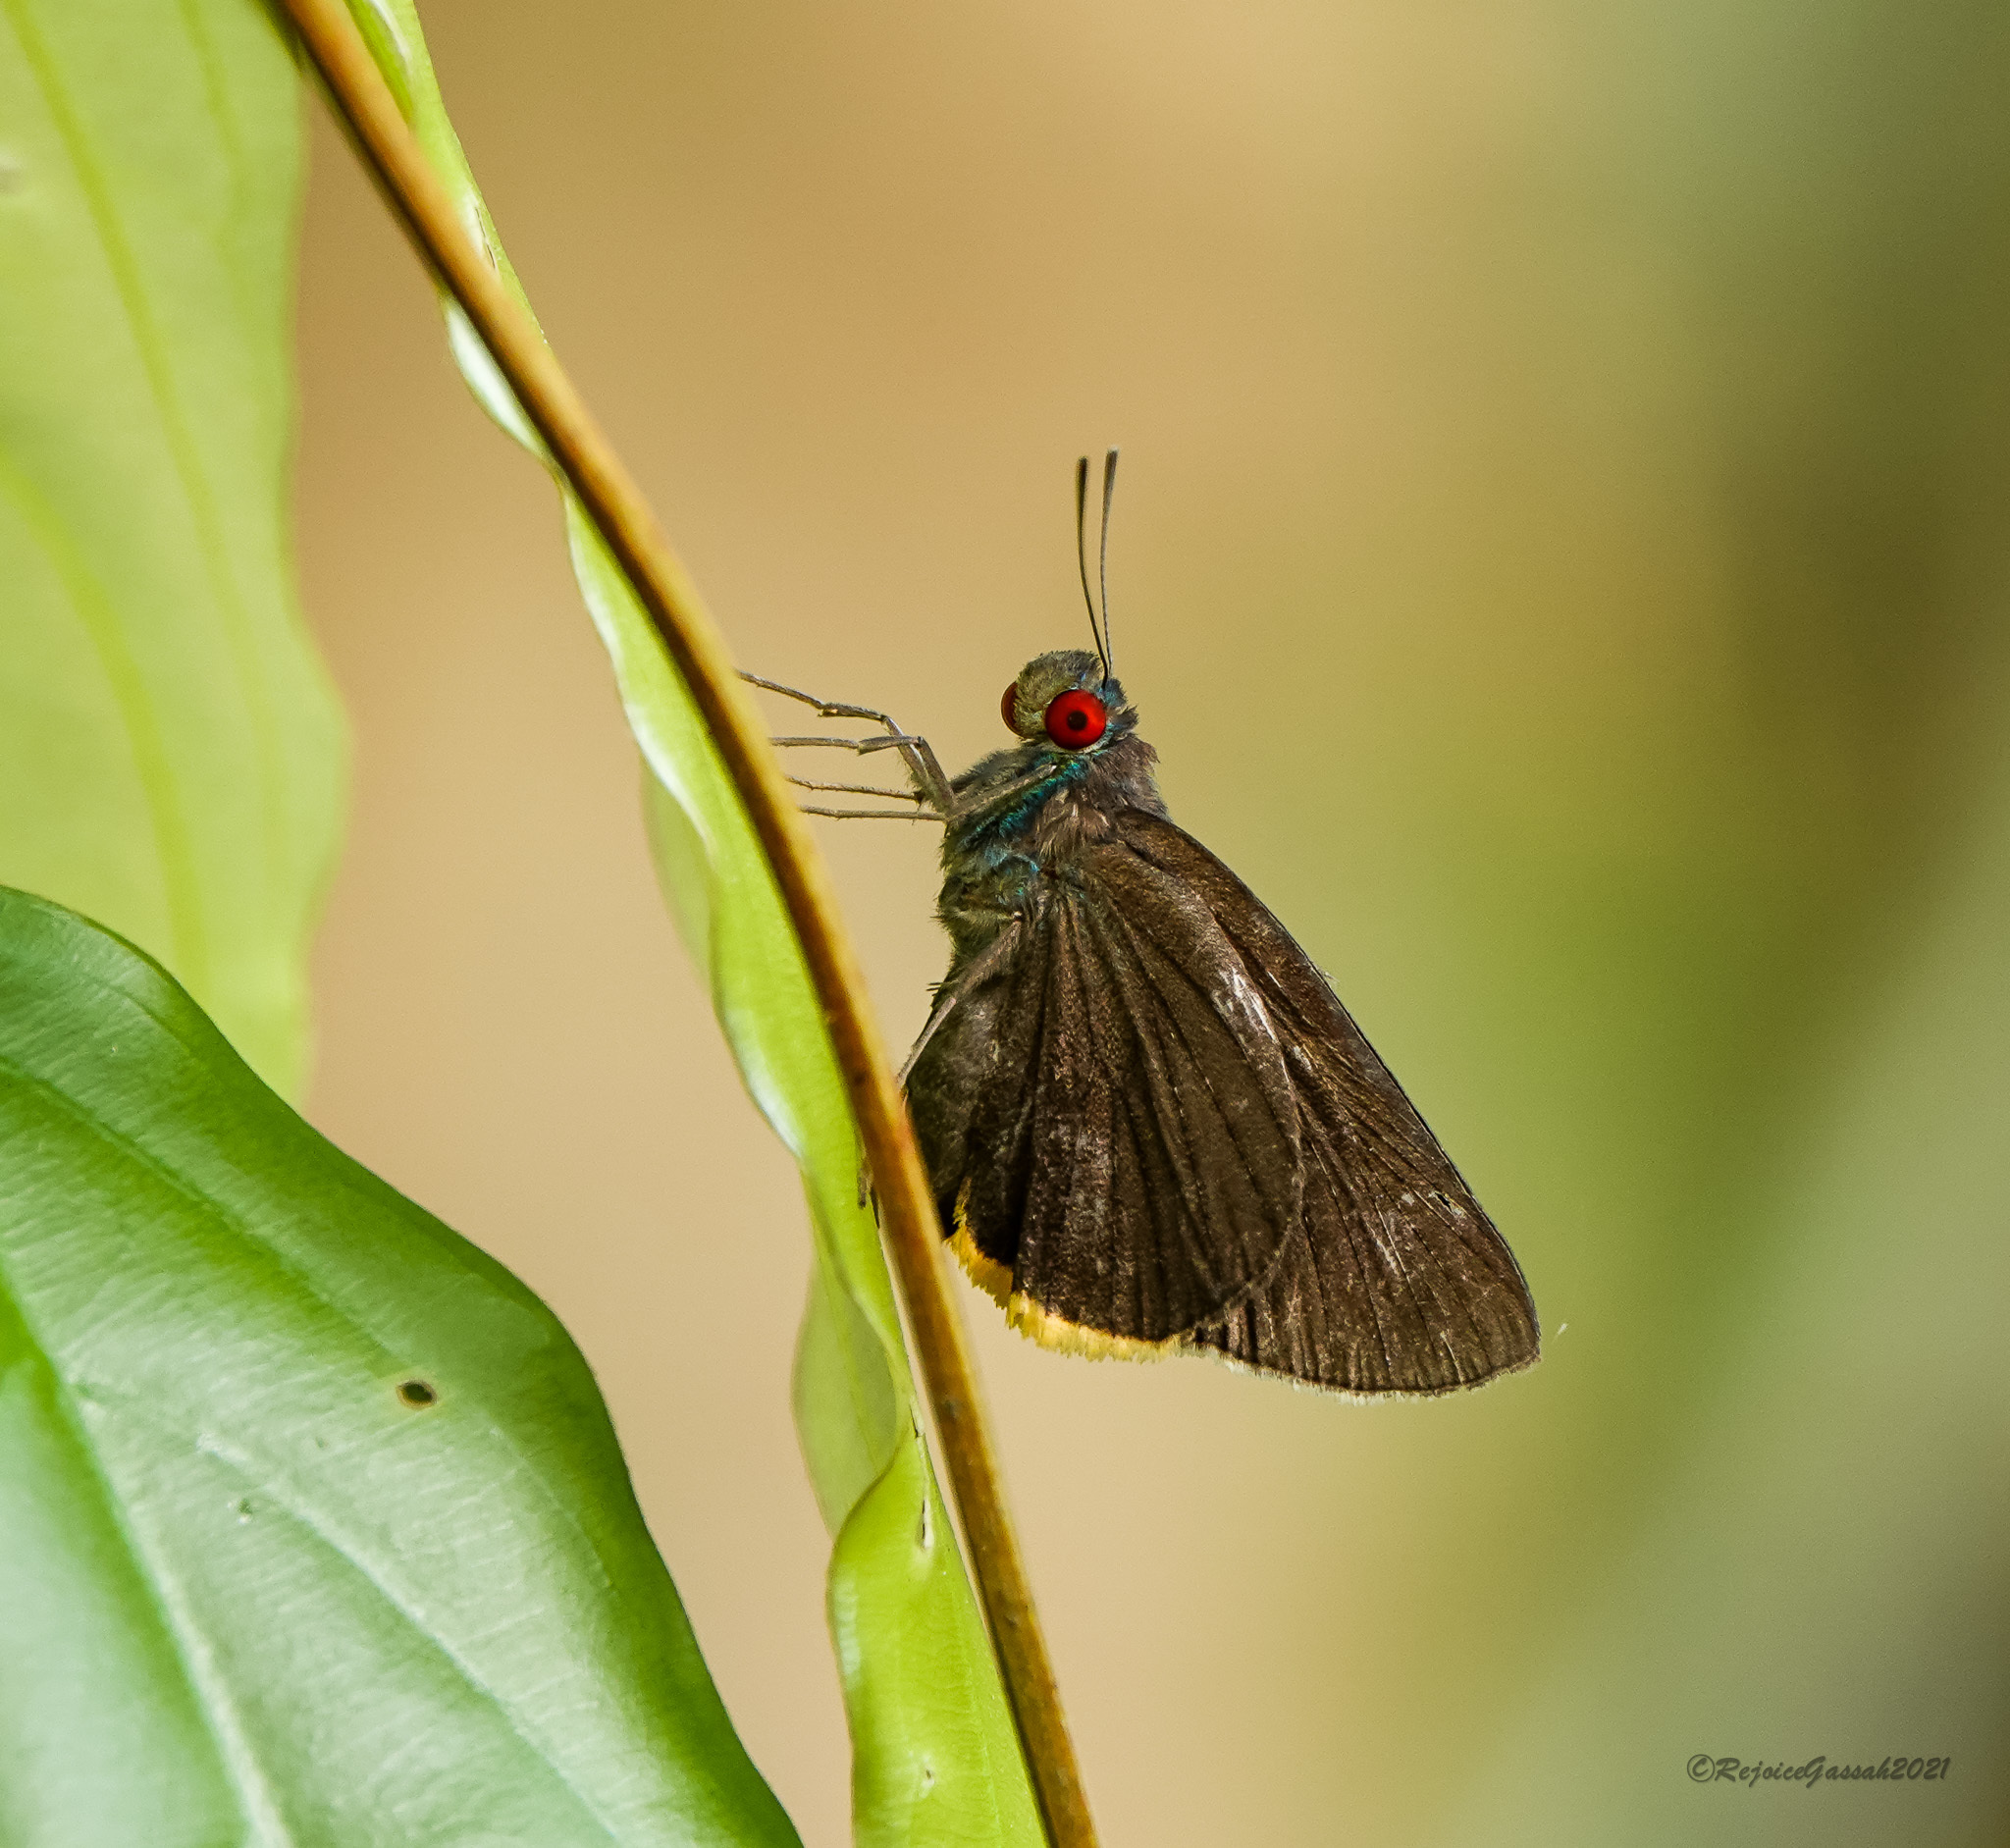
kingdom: Animalia
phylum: Arthropoda
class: Insecta
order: Lepidoptera
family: Hesperiidae
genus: Matapa
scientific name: Matapa sasivarna
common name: Black-veined redeye
